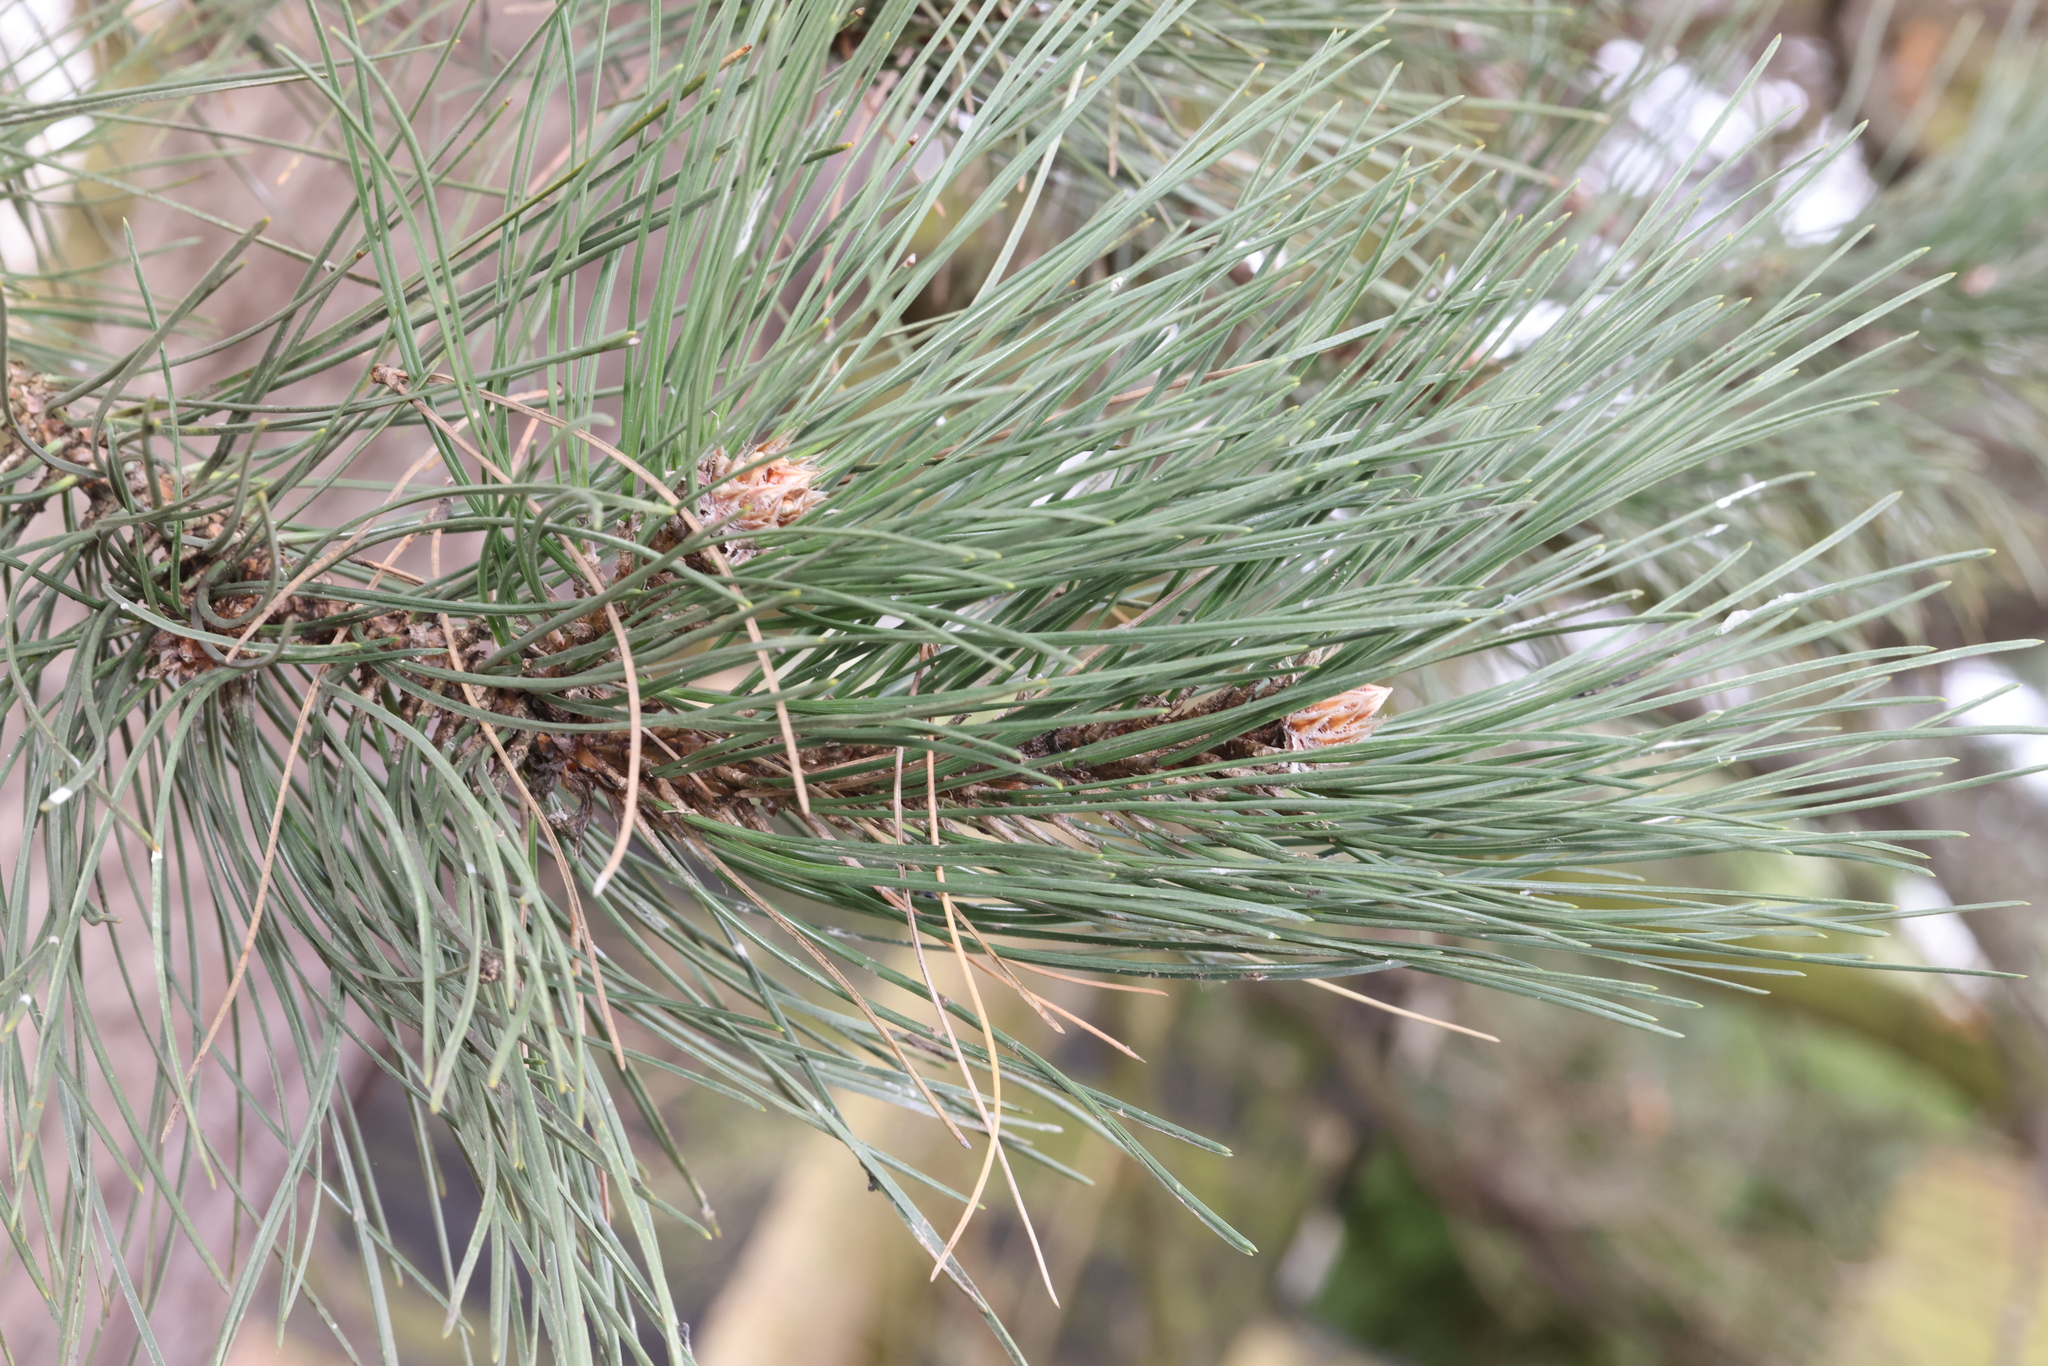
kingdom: Plantae
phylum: Tracheophyta
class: Pinopsida
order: Pinales
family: Pinaceae
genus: Pinus
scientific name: Pinus sylvestris
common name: Scots pine
